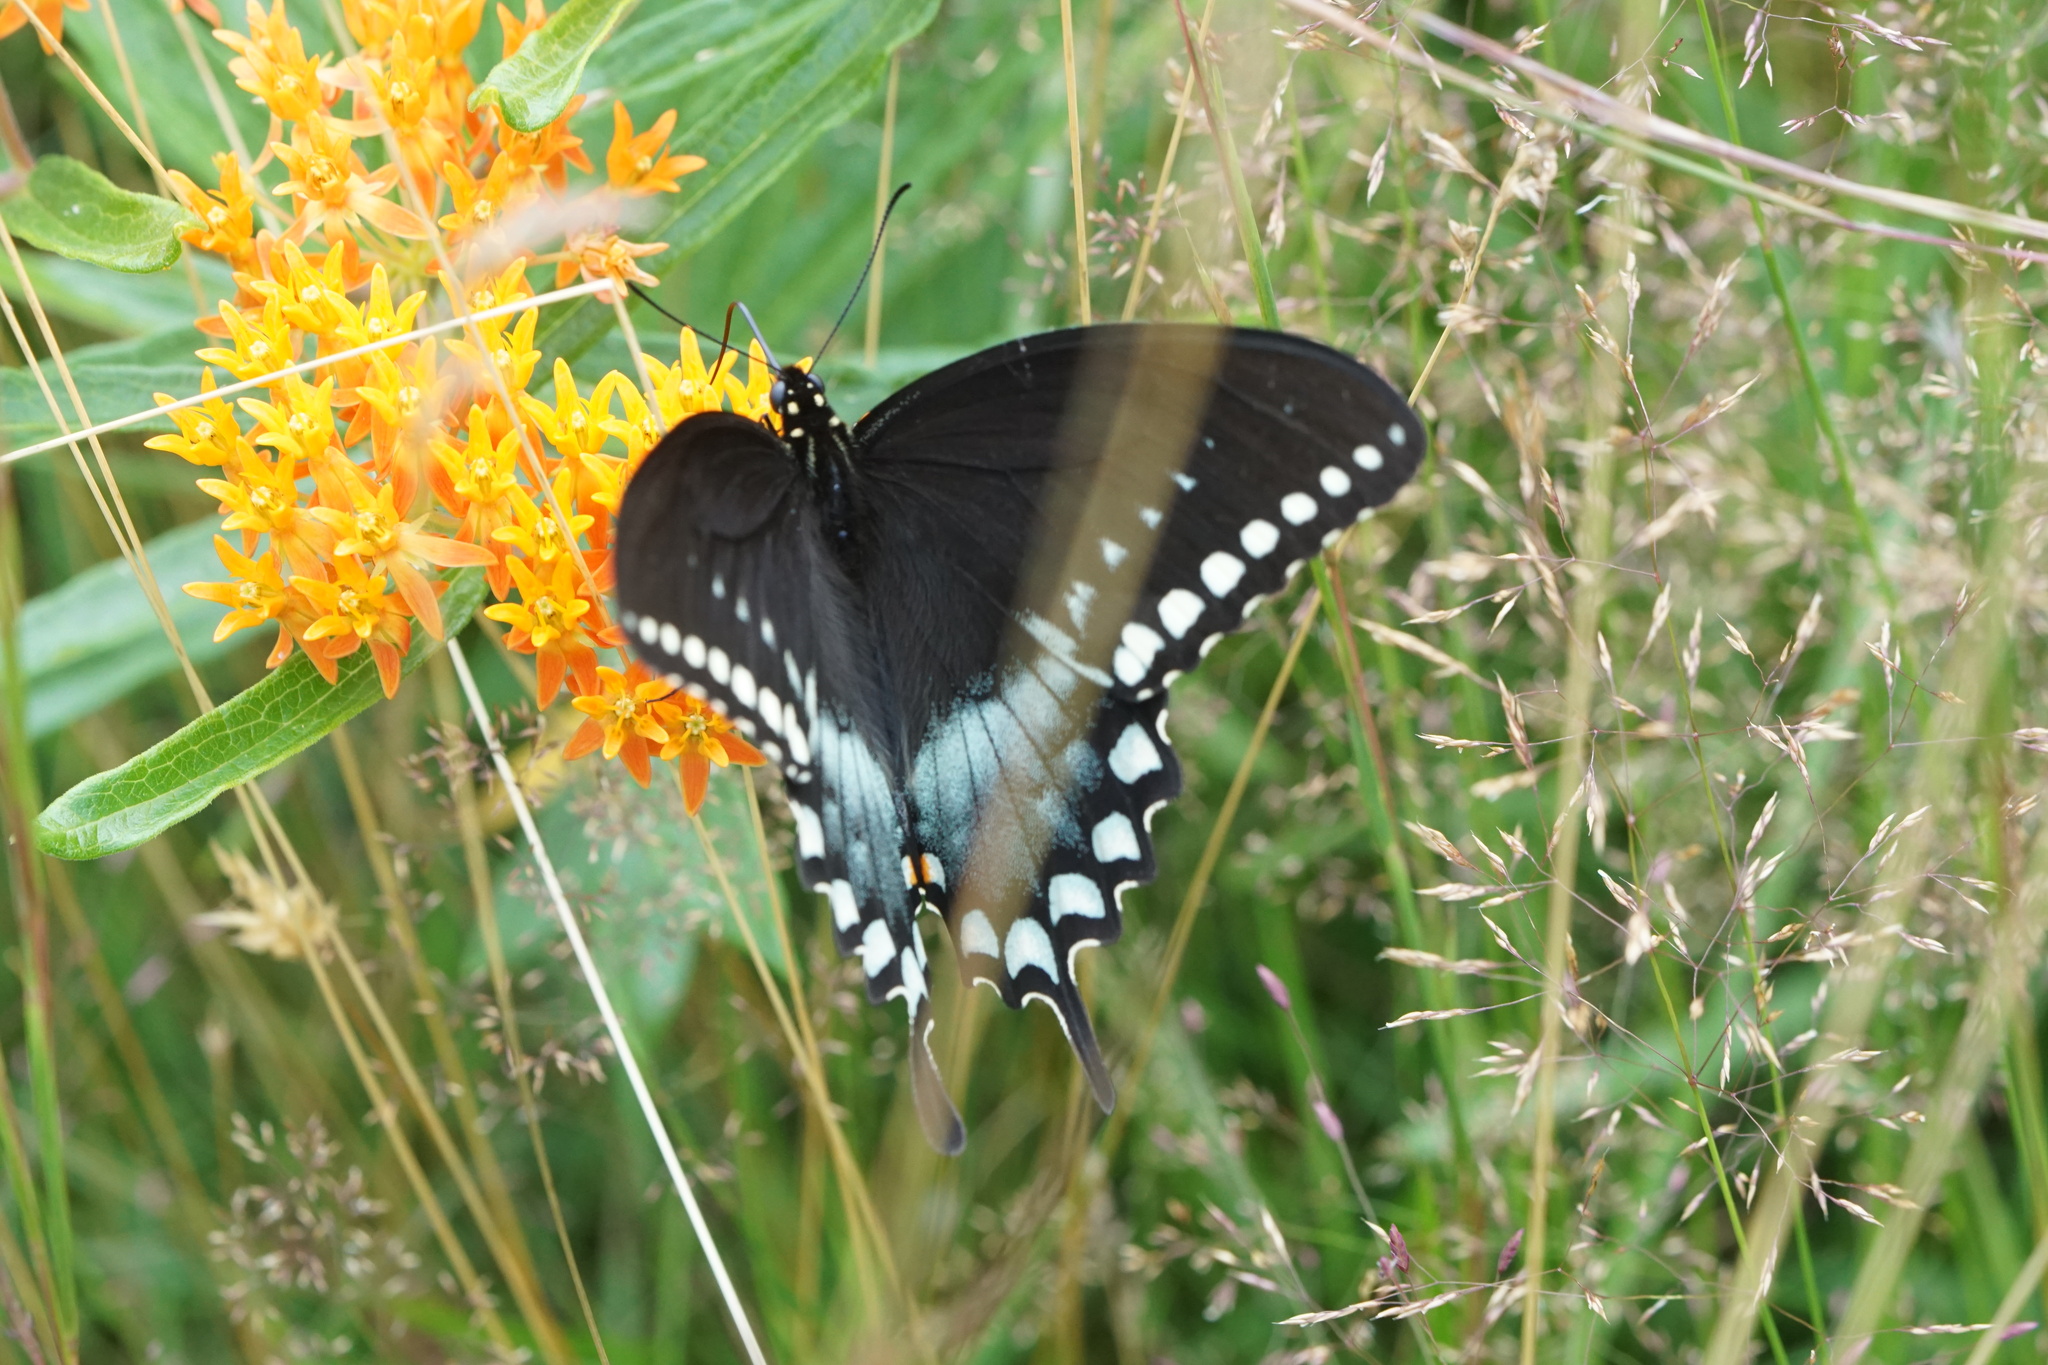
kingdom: Animalia
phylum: Arthropoda
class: Insecta
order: Lepidoptera
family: Papilionidae
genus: Papilio
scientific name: Papilio troilus
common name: Spicebush swallowtail
